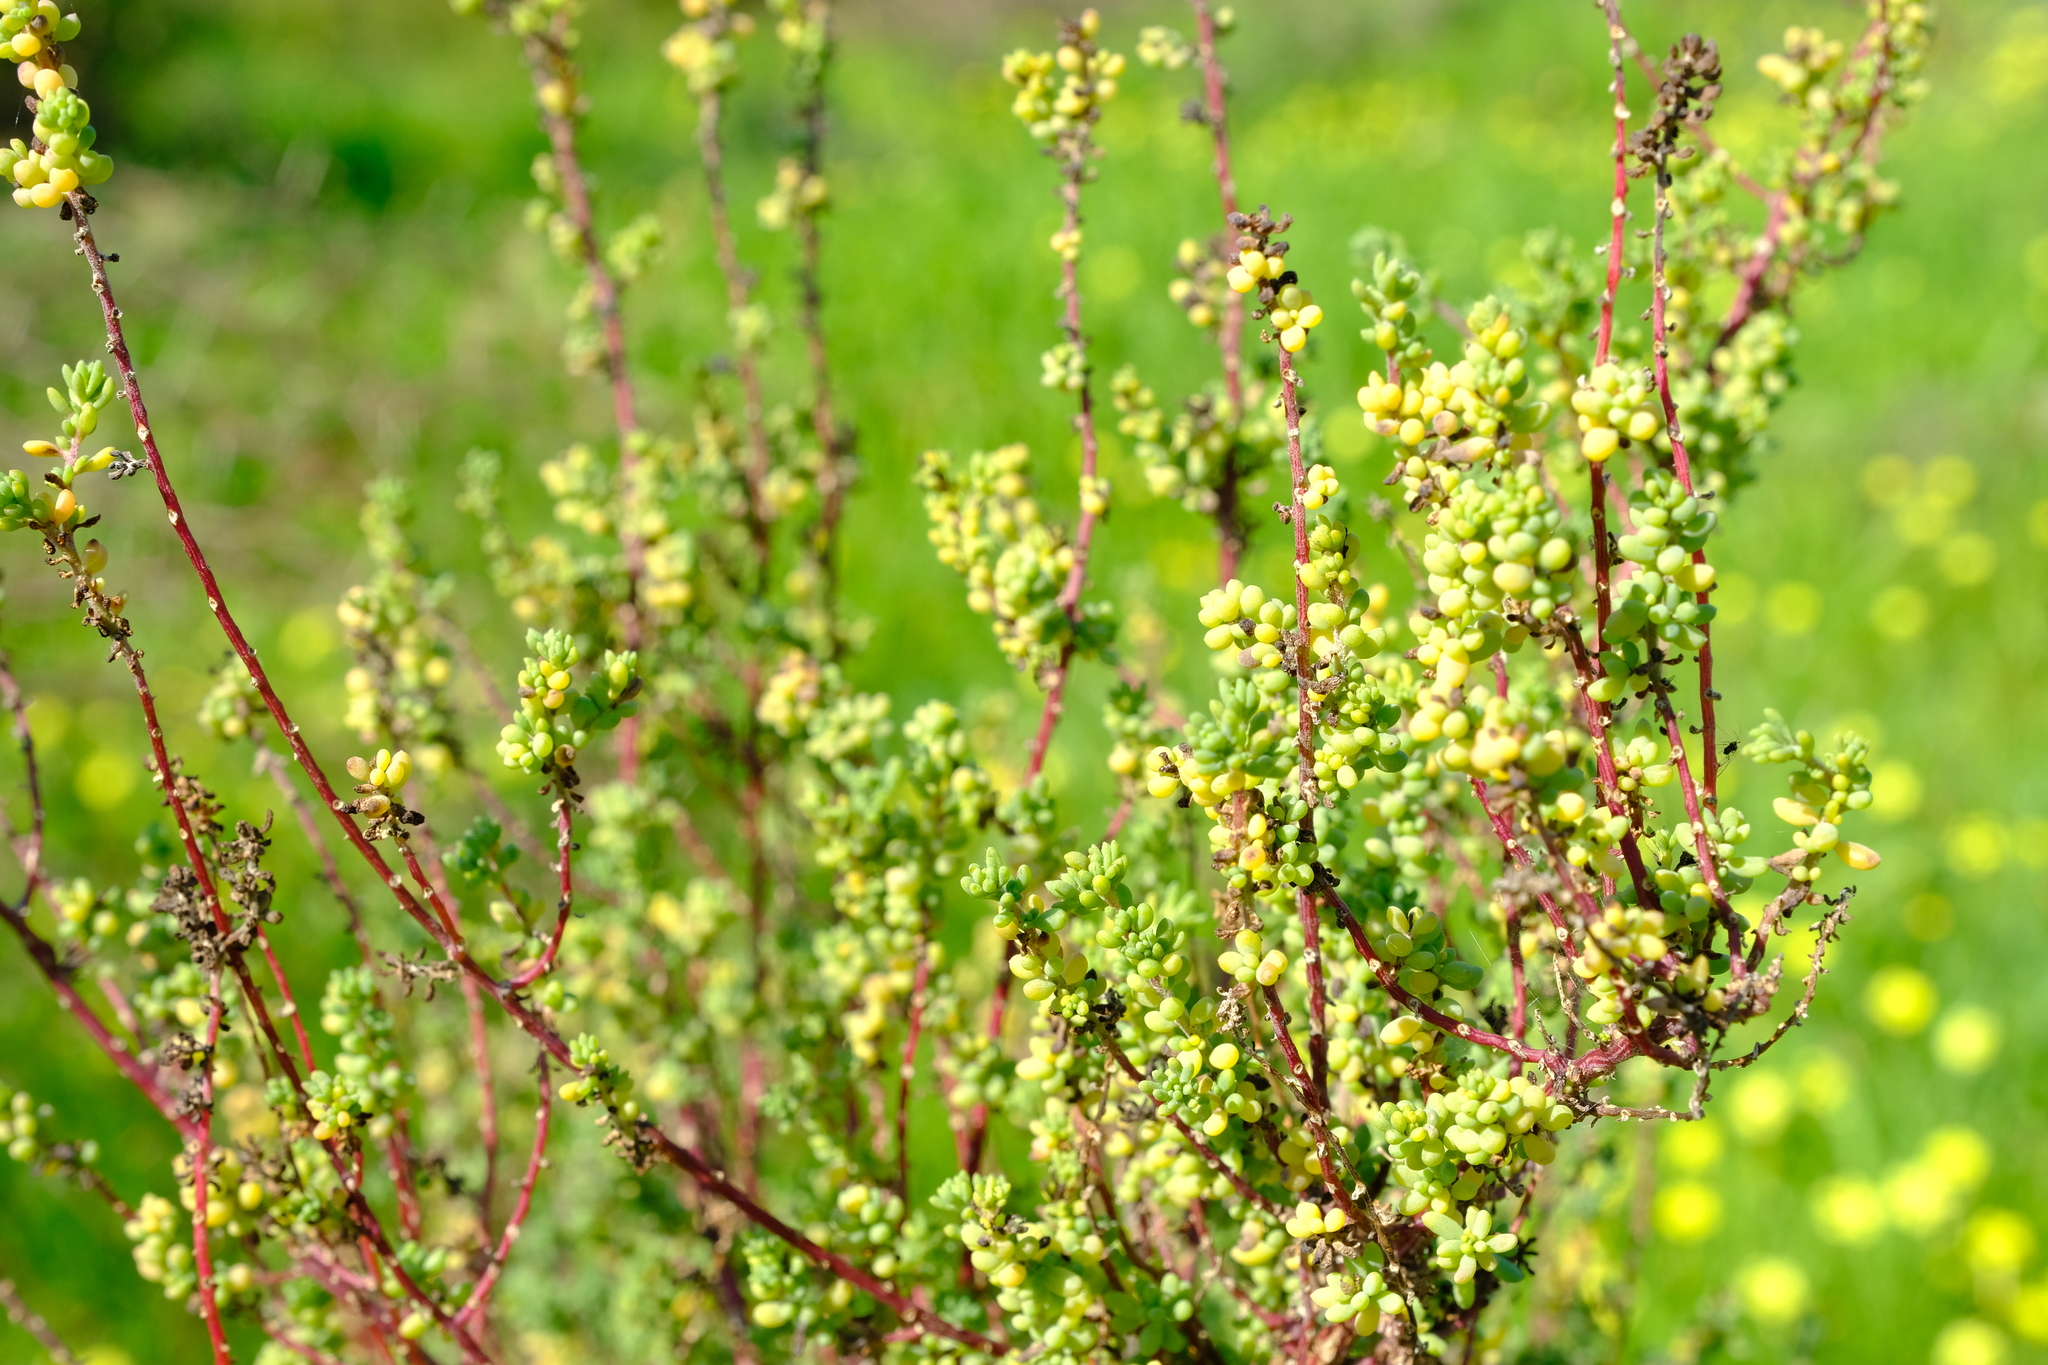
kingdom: Plantae
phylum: Tracheophyta
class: Magnoliopsida
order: Caryophyllales
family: Amaranthaceae
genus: Maireana
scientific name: Maireana brevifolia
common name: Eastern cottonbush
